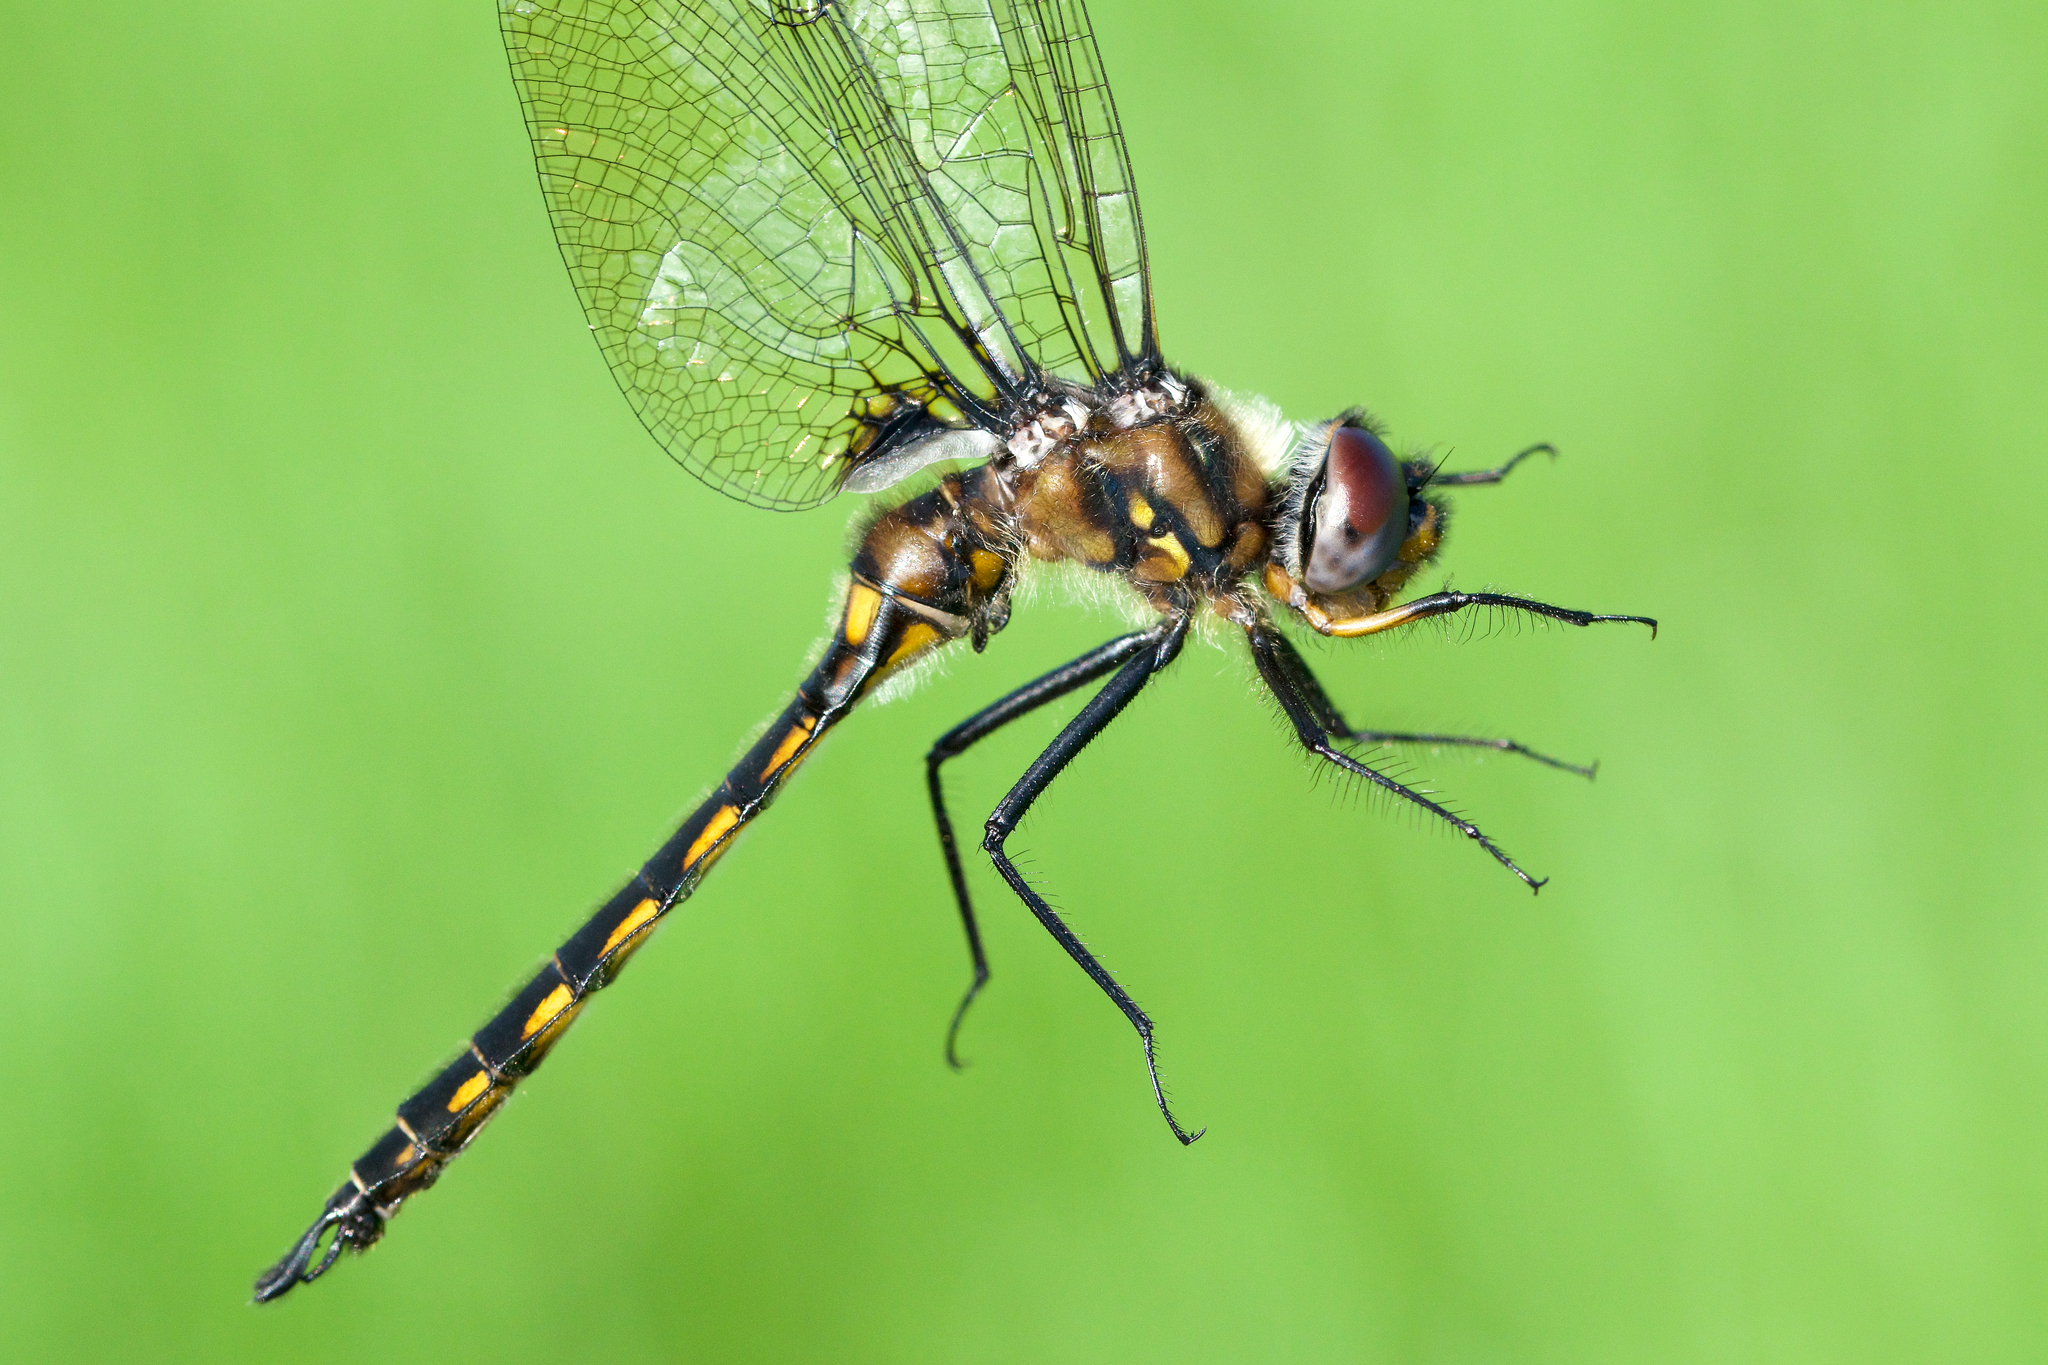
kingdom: Animalia
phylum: Arthropoda
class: Insecta
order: Odonata
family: Corduliidae
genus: Epitheca
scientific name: Epitheca spinigera
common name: Spiny baskettail
